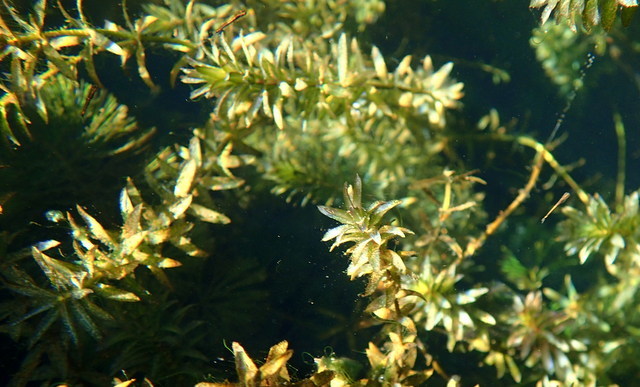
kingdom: Plantae
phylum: Tracheophyta
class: Liliopsida
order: Alismatales
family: Hydrocharitaceae
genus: Hydrilla
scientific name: Hydrilla verticillata
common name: Florida-elodea
